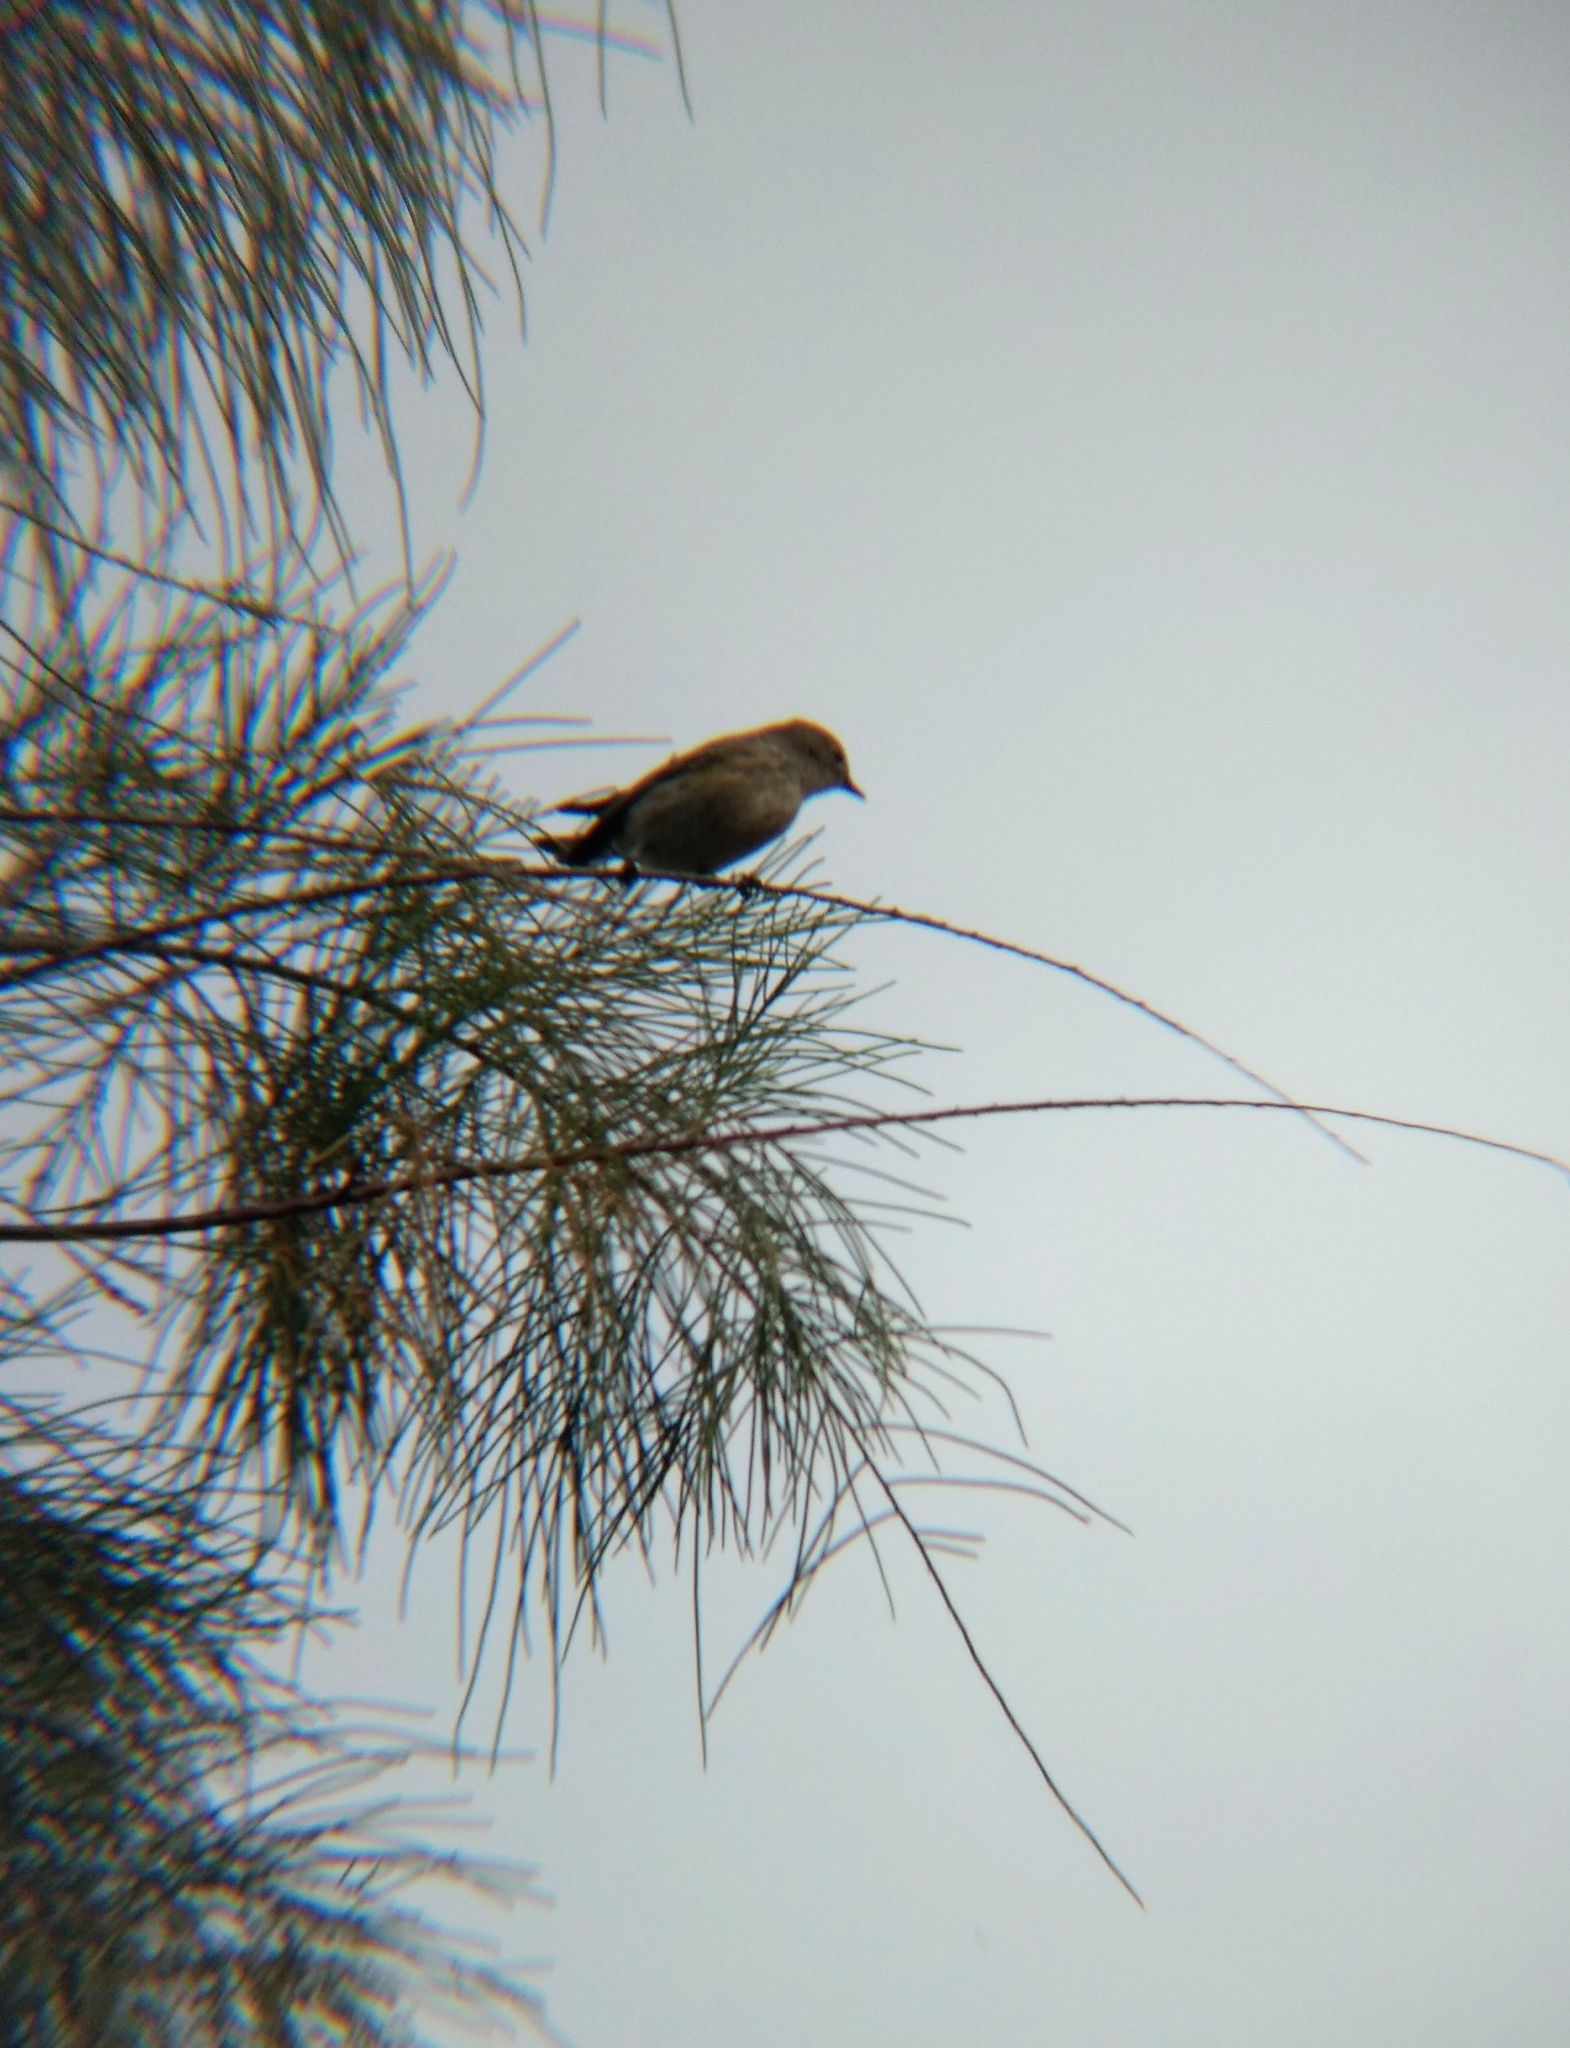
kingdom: Animalia
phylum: Chordata
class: Aves
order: Passeriformes
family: Parulidae
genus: Setophaga
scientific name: Setophaga coronata
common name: Myrtle warbler
